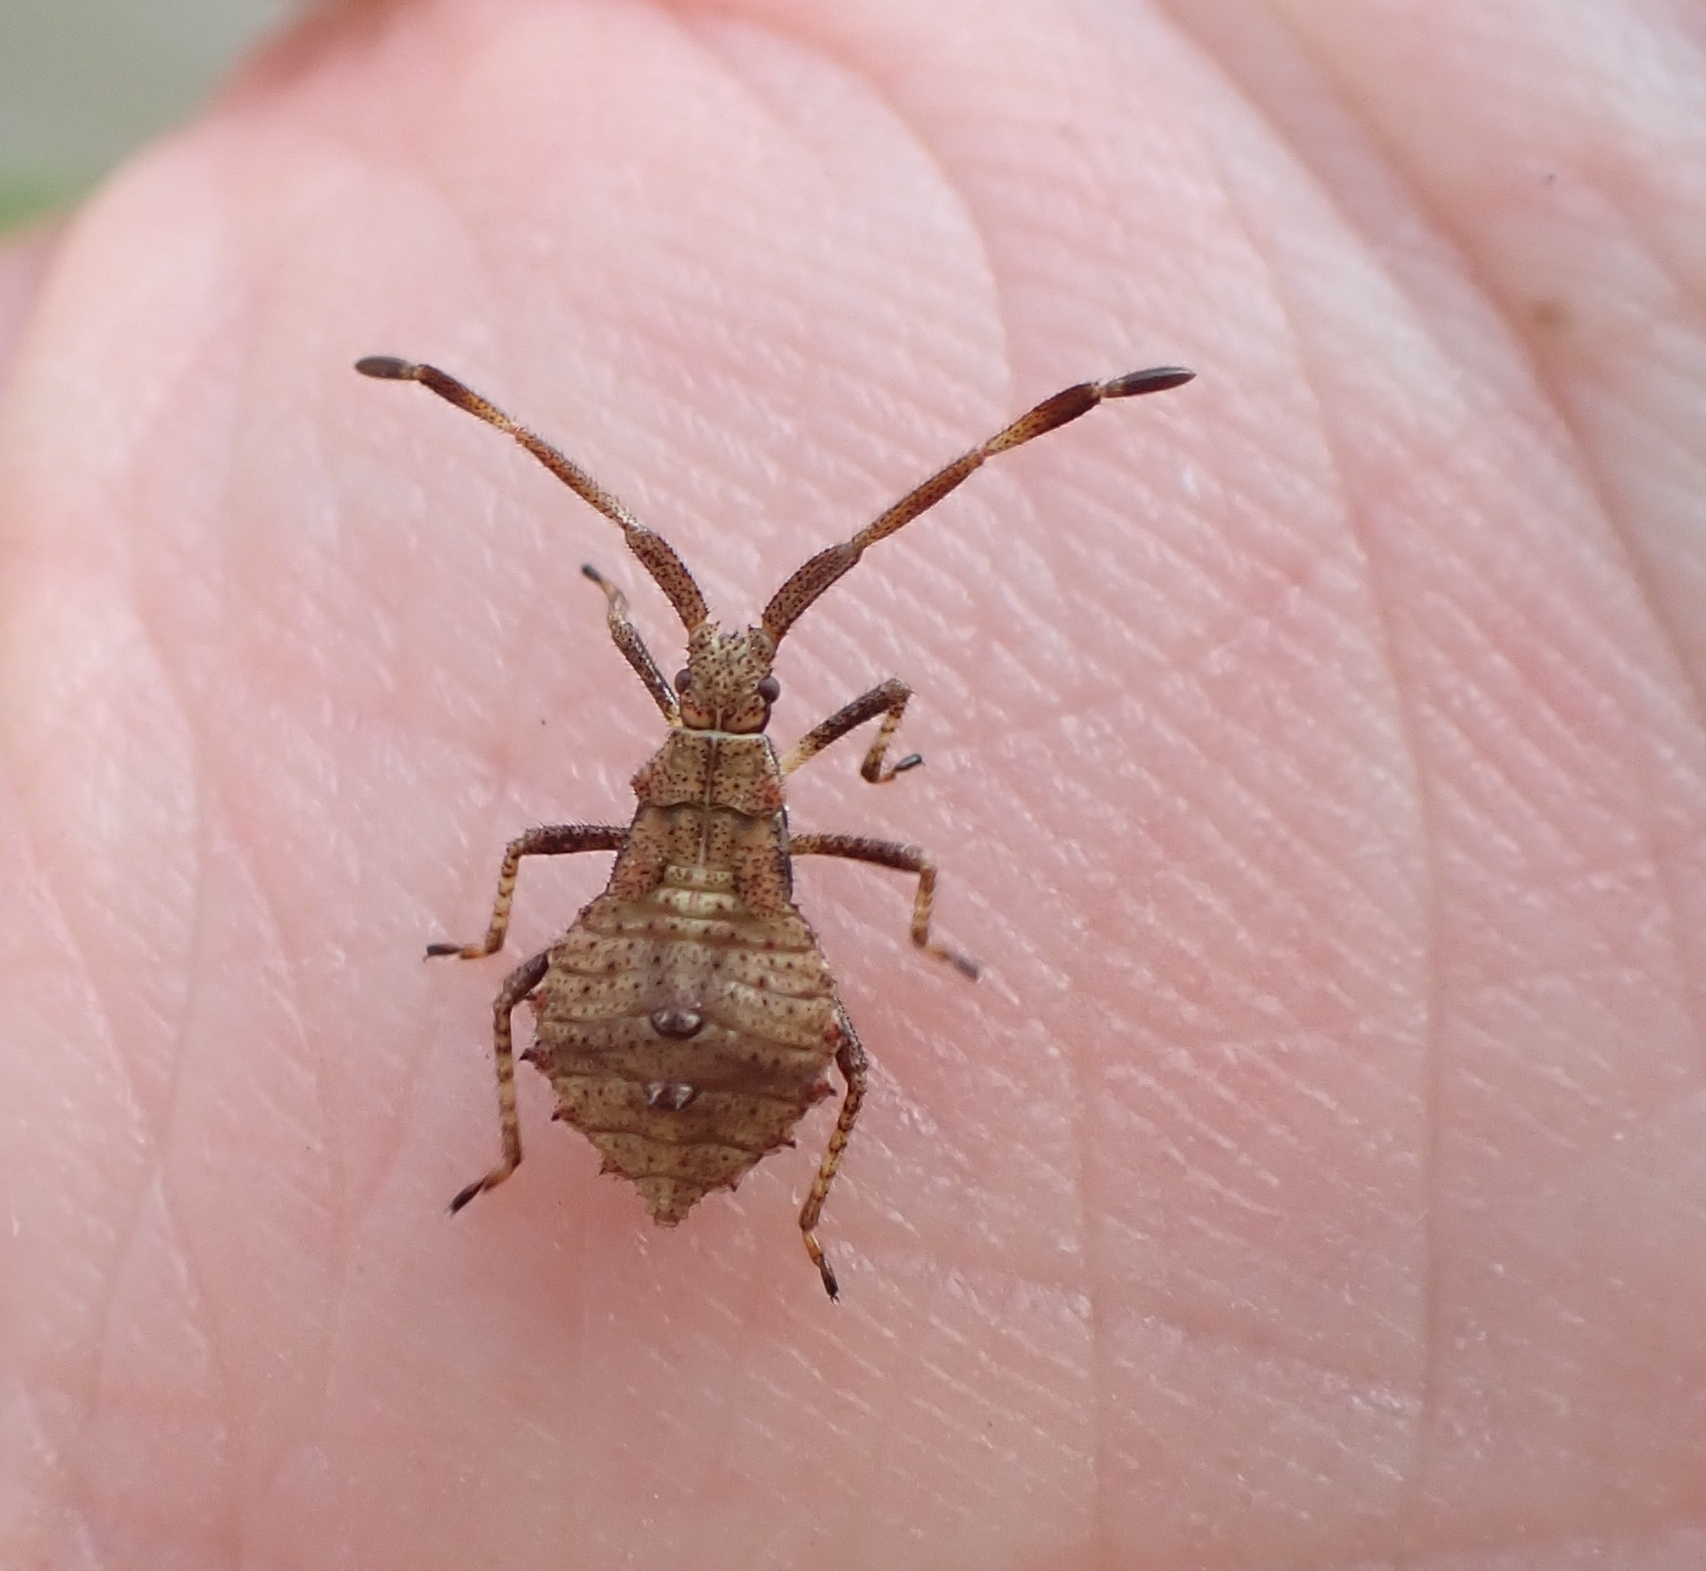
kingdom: Animalia
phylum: Arthropoda
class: Insecta
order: Hemiptera
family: Coreidae
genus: Coreus
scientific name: Coreus marginatus
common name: Dock bug
